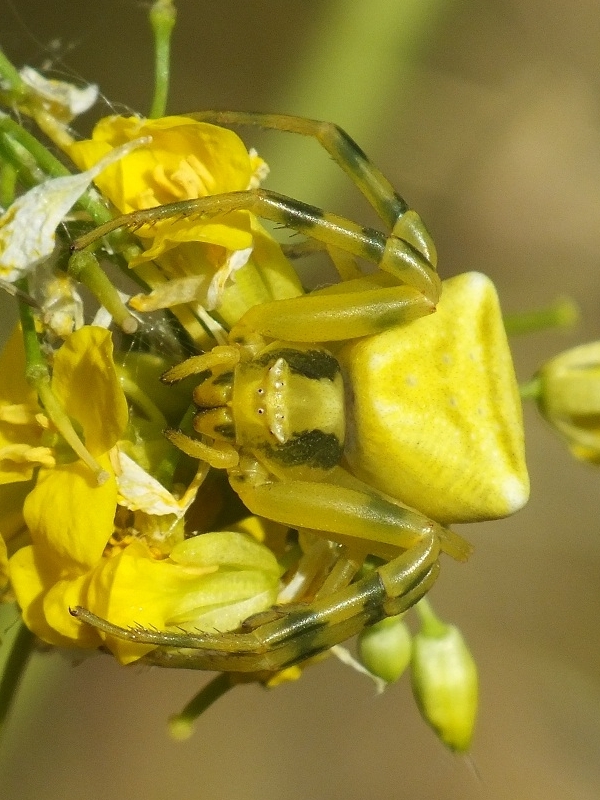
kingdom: Animalia
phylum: Arthropoda
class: Arachnida
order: Araneae
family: Thomisidae
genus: Thomisus
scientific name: Thomisus onustus
